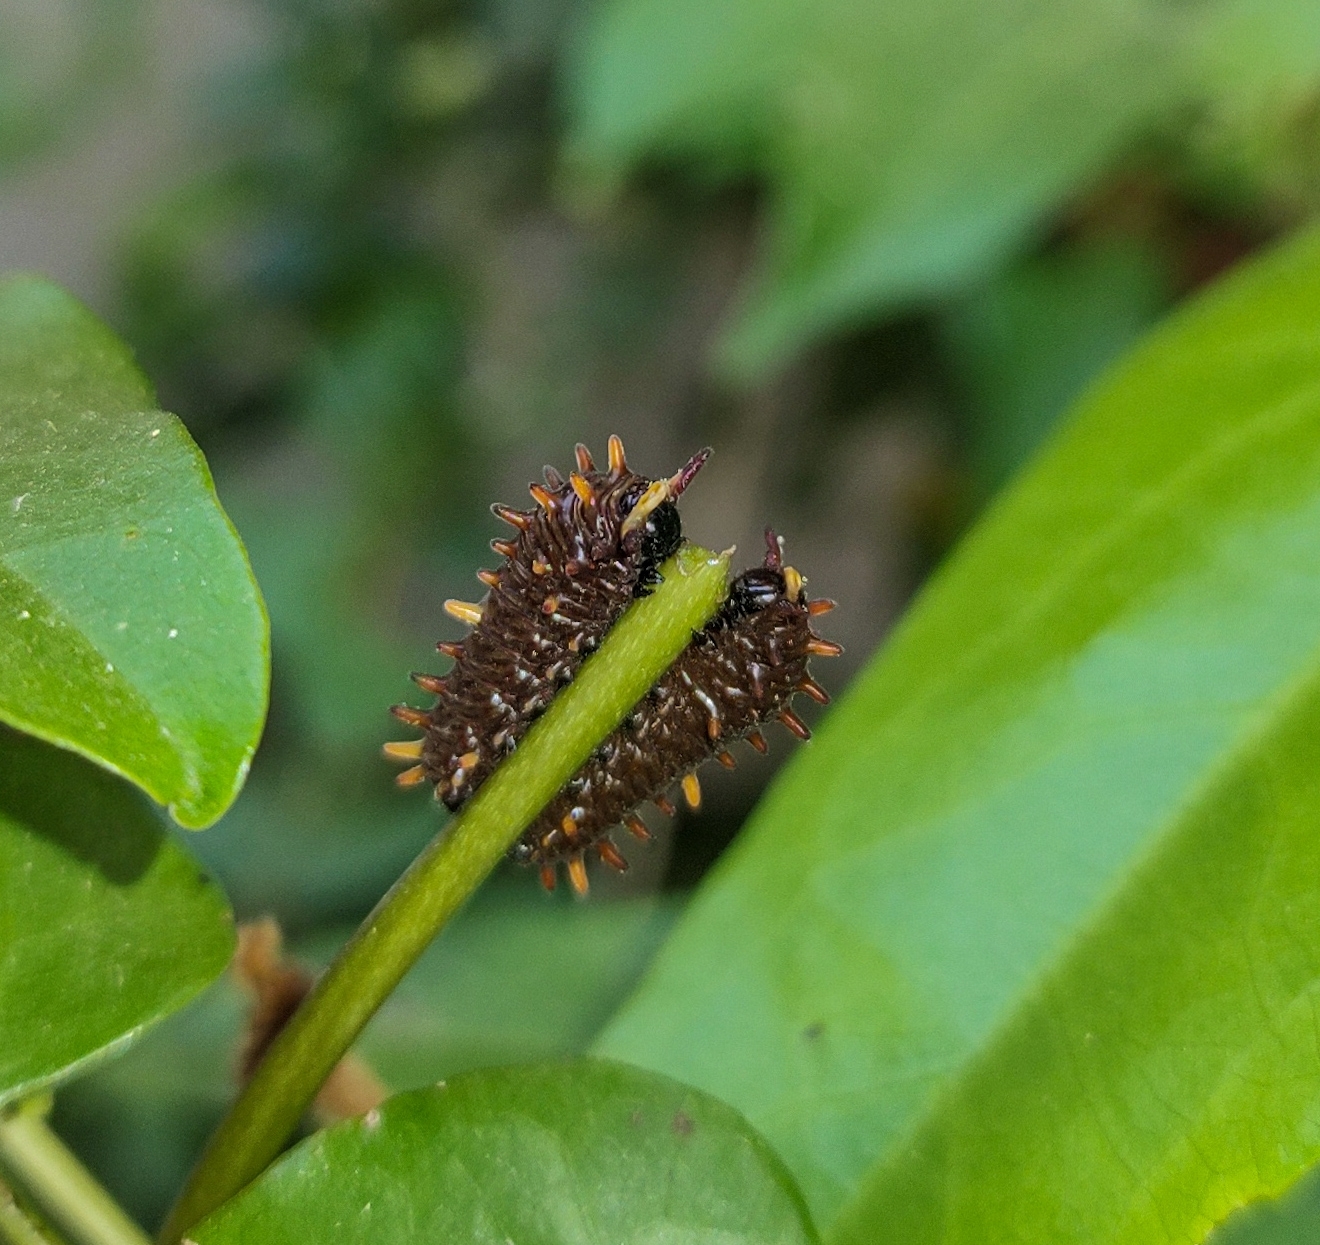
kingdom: Animalia
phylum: Arthropoda
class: Insecta
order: Lepidoptera
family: Papilionidae
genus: Battus
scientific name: Battus polydamas
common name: Polydamas swallowtail
